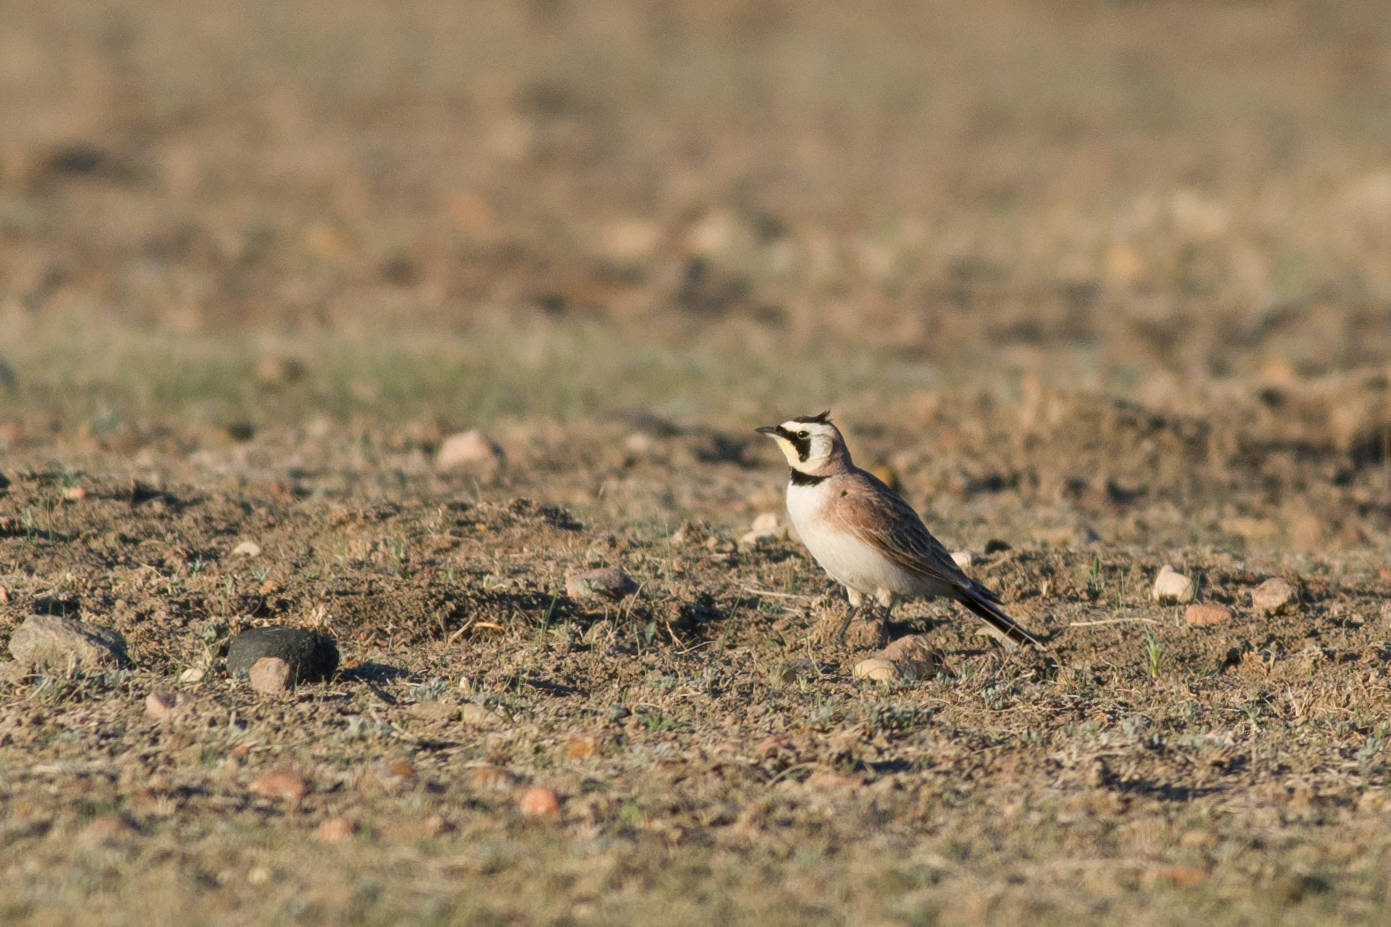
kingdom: Animalia
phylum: Chordata
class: Aves
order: Passeriformes
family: Alaudidae
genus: Eremophila
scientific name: Eremophila alpestris
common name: Horned lark
